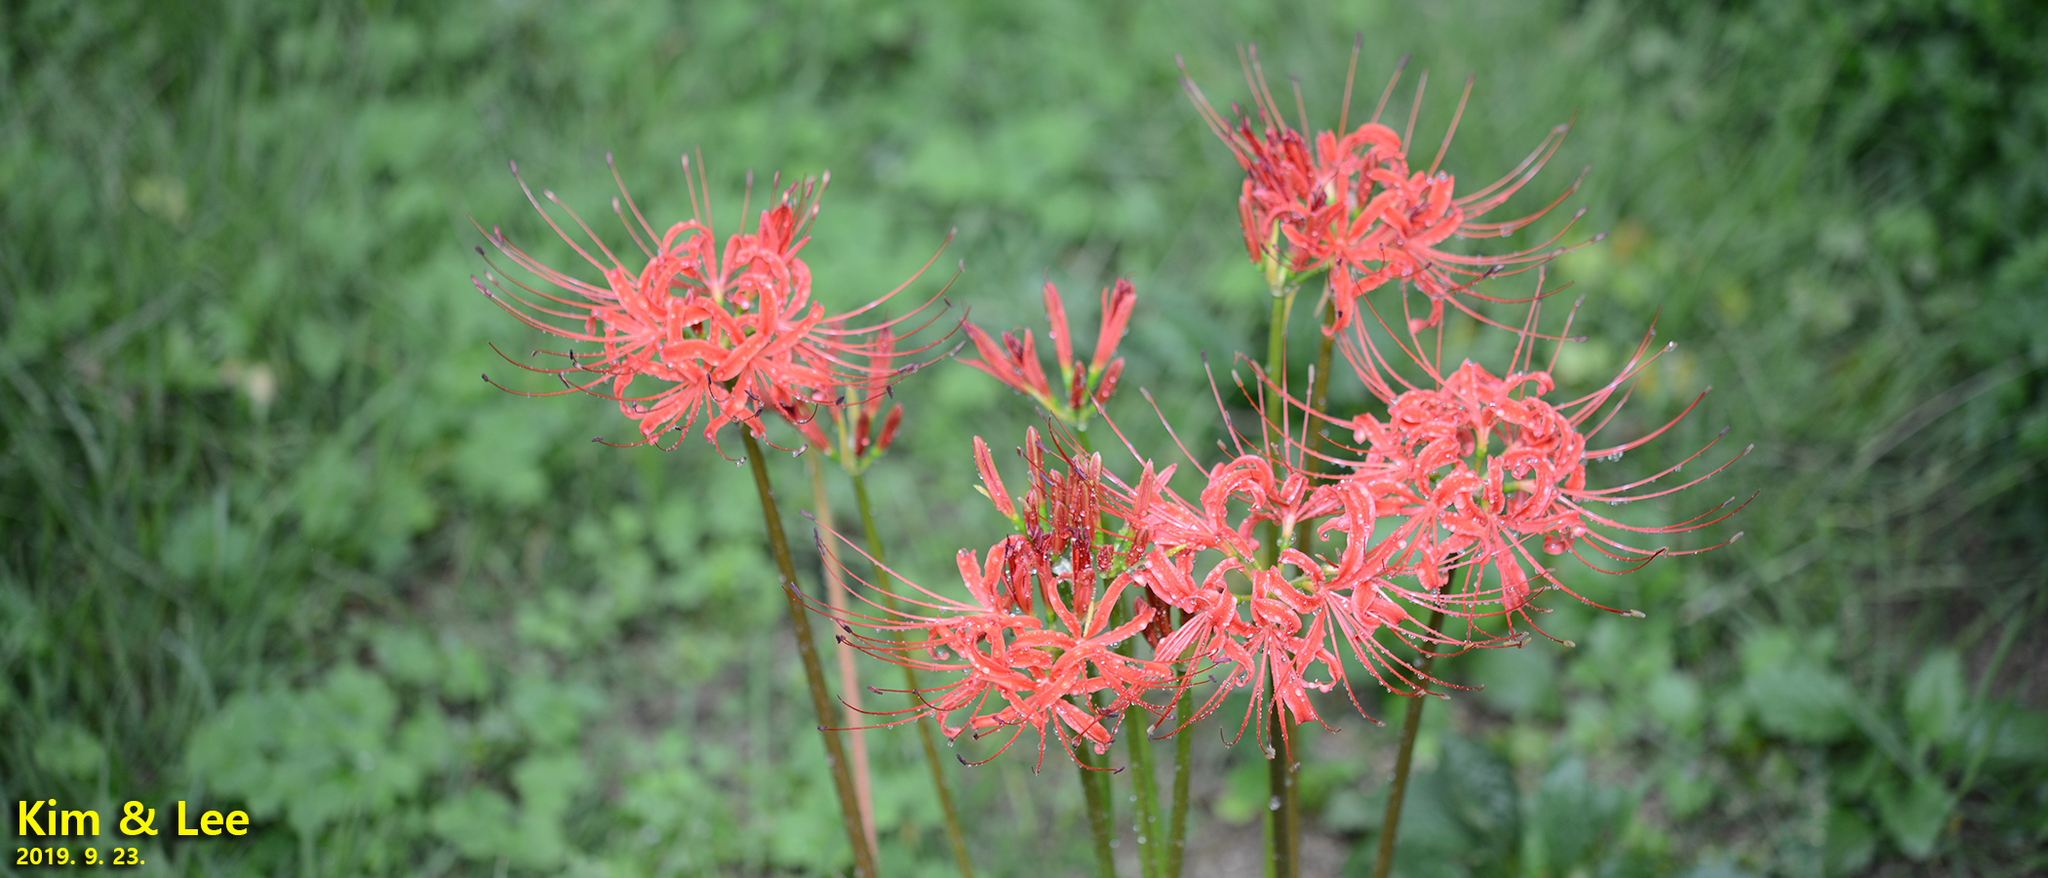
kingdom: Plantae
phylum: Tracheophyta
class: Liliopsida
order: Asparagales
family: Amaryllidaceae
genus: Lycoris
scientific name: Lycoris radiata
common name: Red spider lily
